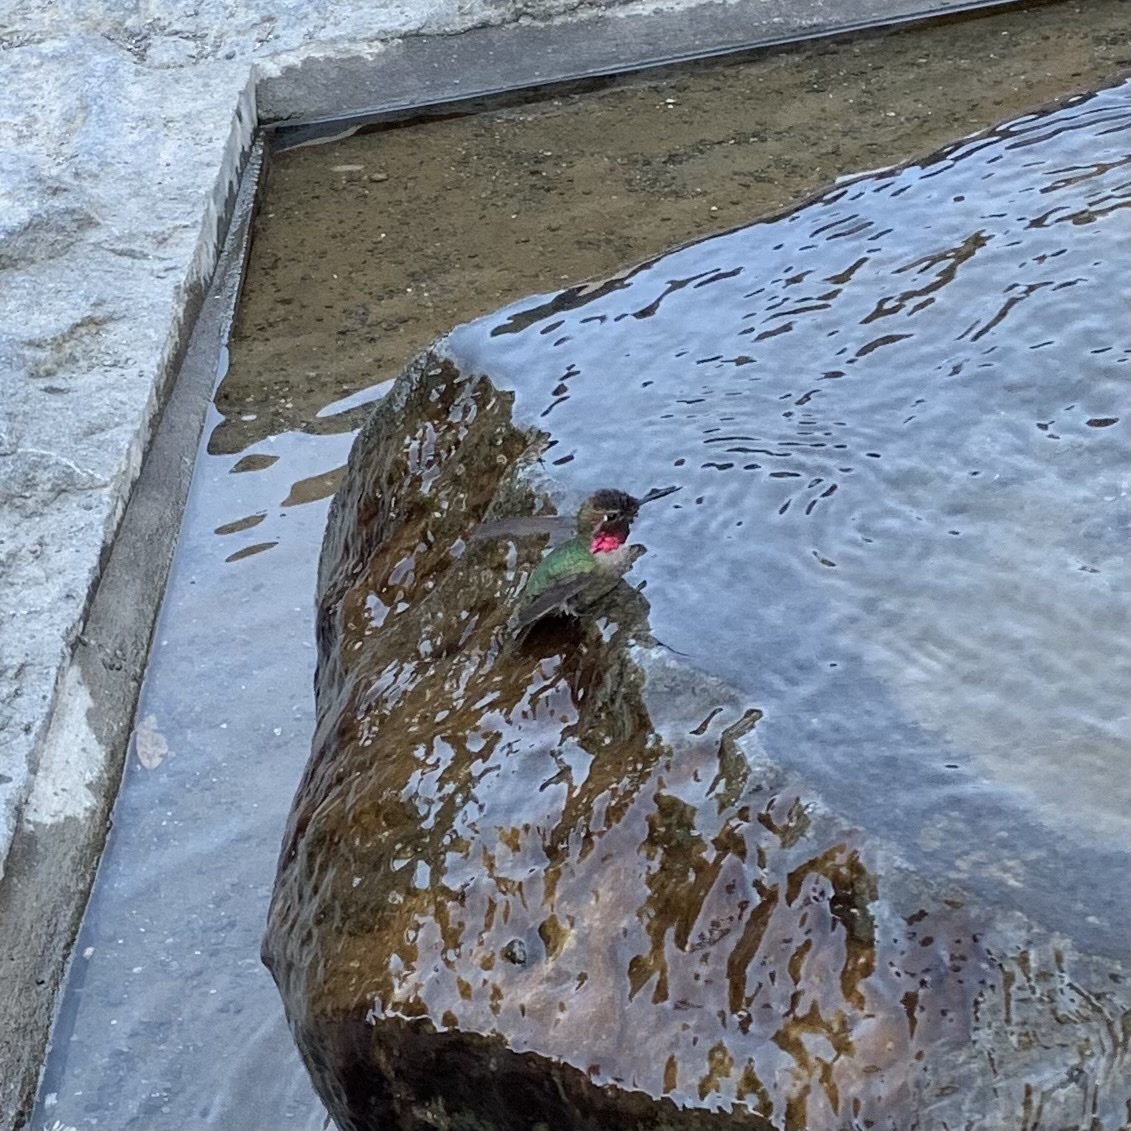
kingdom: Animalia
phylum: Chordata
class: Aves
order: Apodiformes
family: Trochilidae
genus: Calypte
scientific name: Calypte anna
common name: Anna's hummingbird
